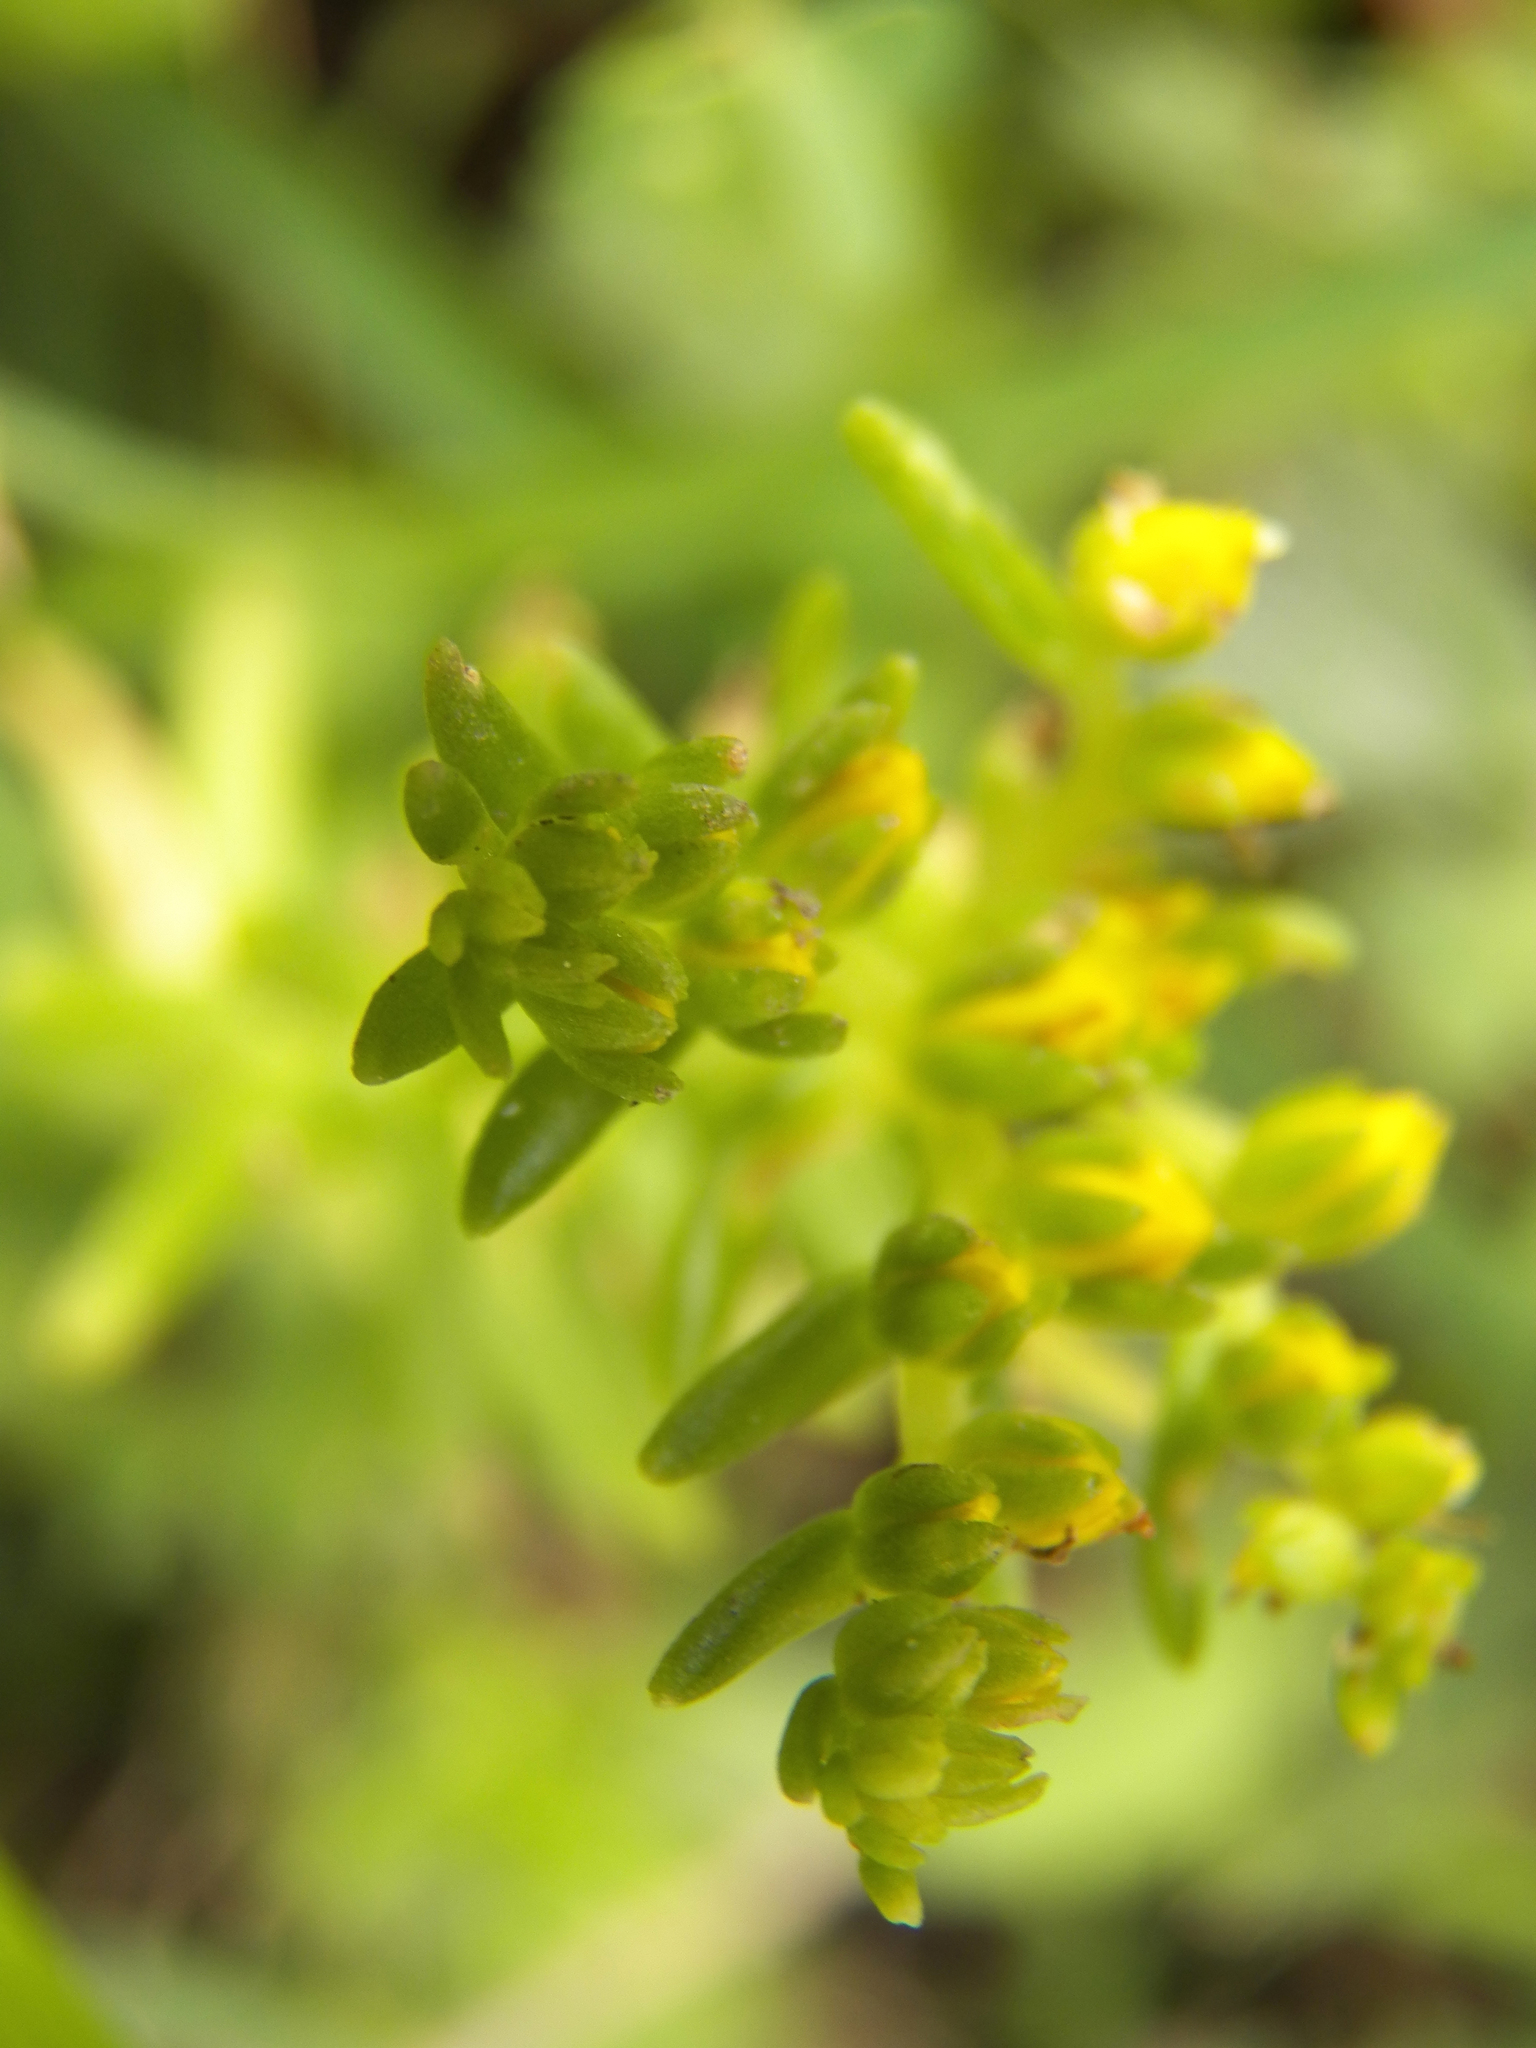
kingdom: Plantae
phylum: Tracheophyta
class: Magnoliopsida
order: Saxifragales
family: Crassulaceae
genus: Sedum
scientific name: Sedum nuttallii
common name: Yellow stonecrop
